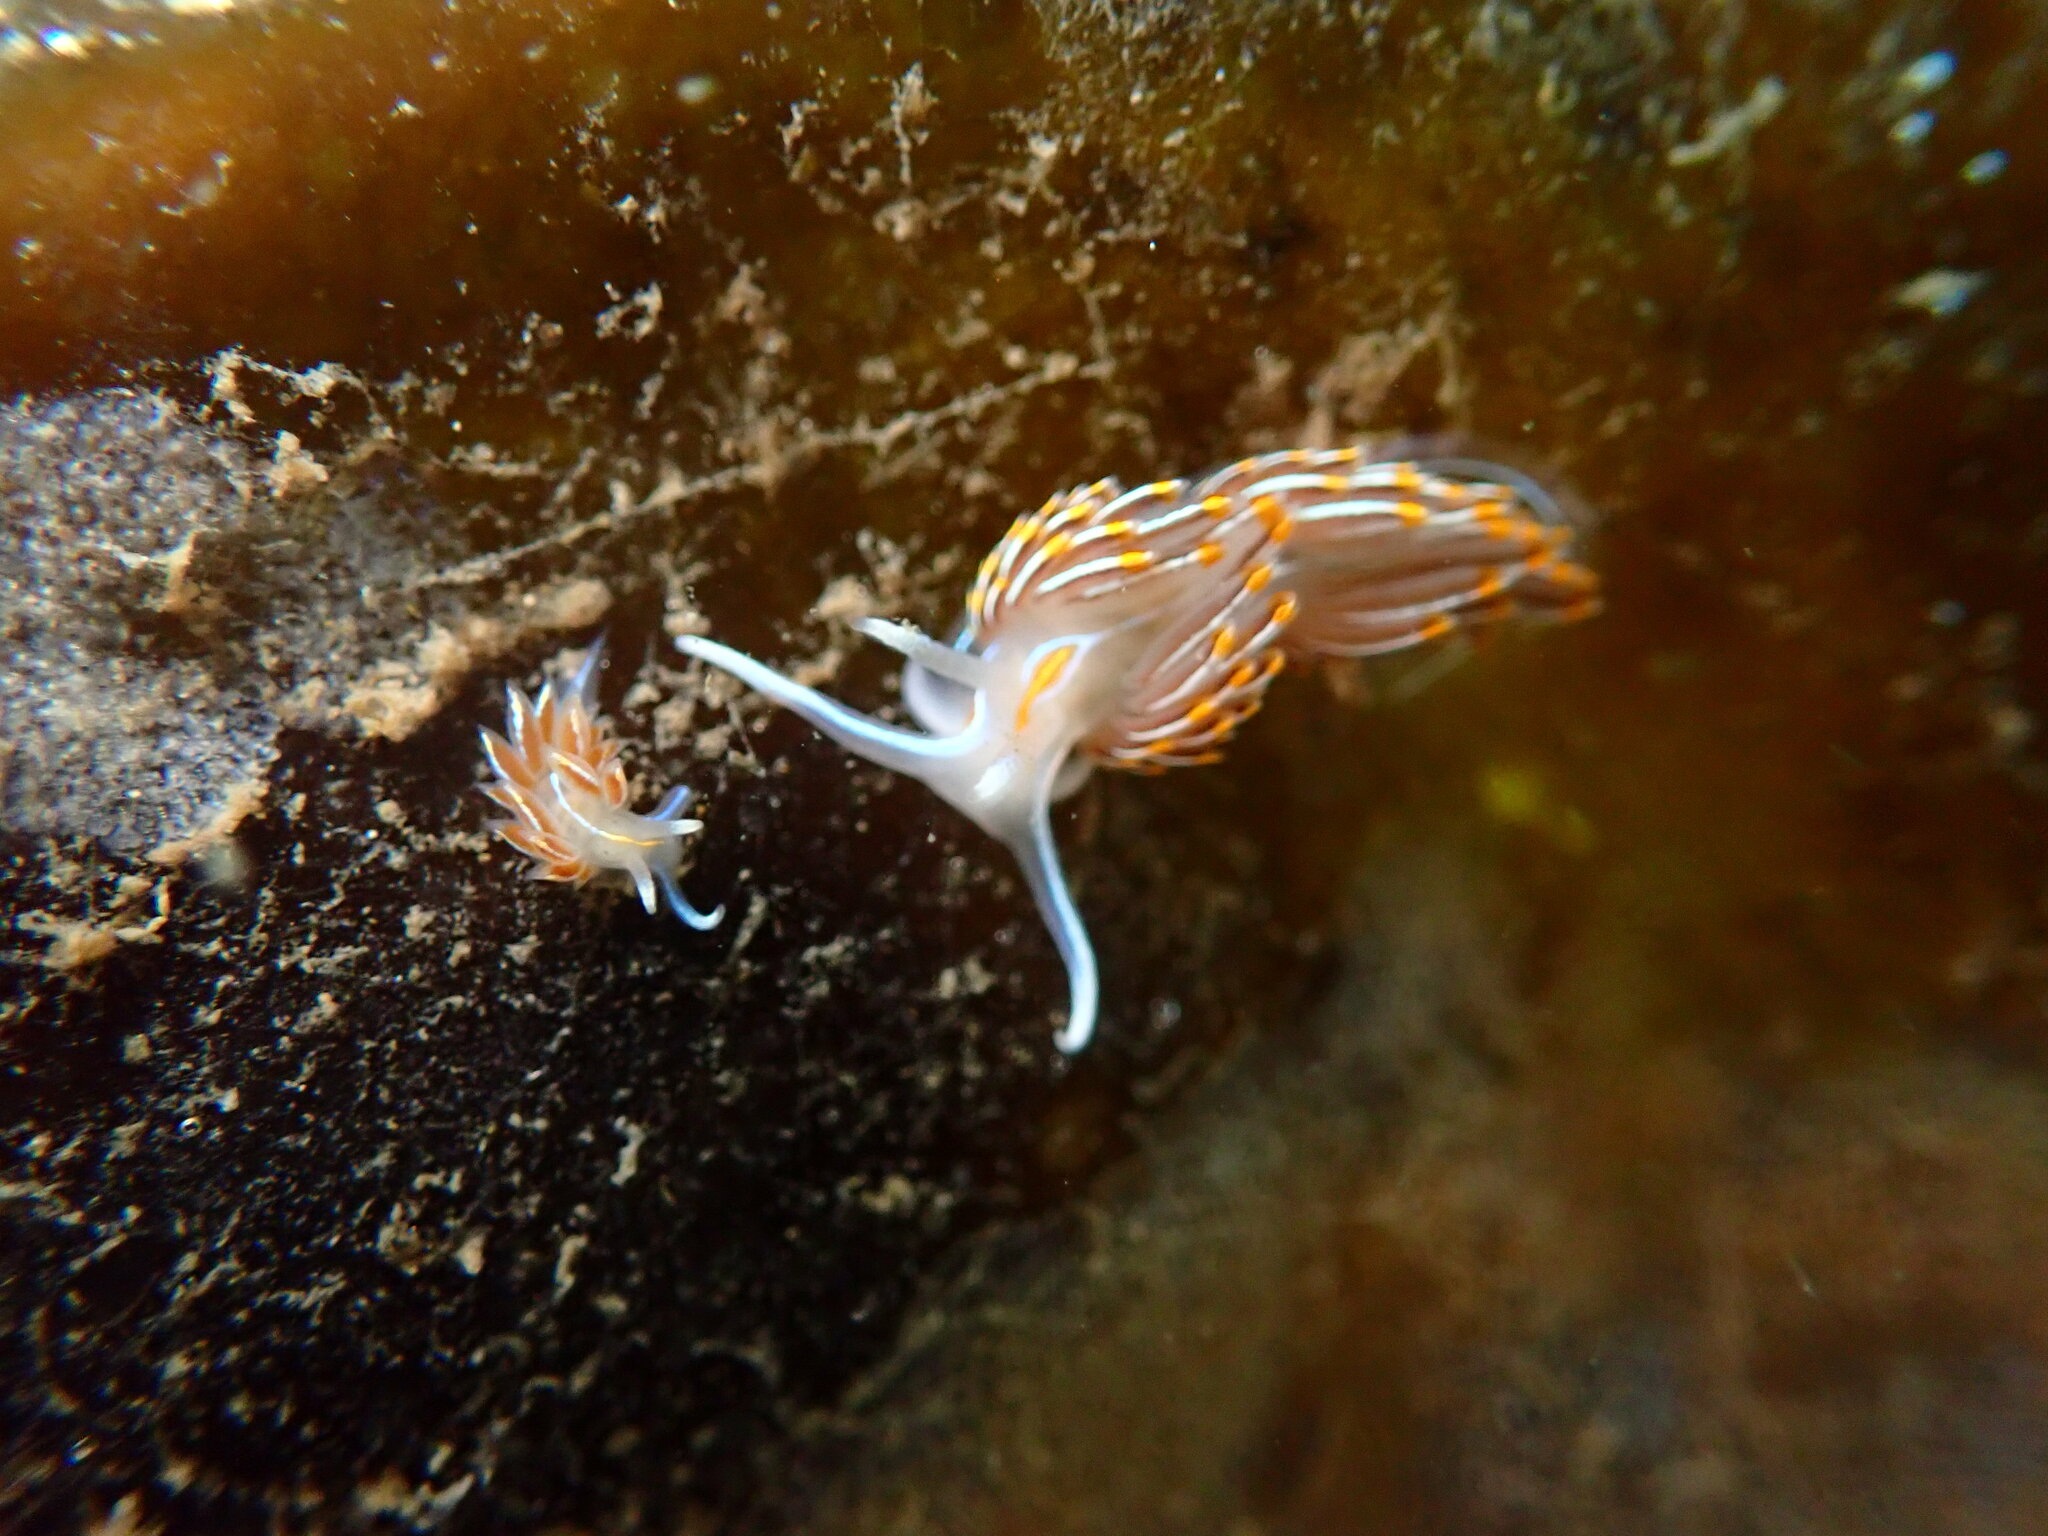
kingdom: Animalia
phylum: Mollusca
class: Gastropoda
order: Nudibranchia
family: Myrrhinidae
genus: Hermissenda
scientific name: Hermissenda crassicornis
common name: Hermissenda
